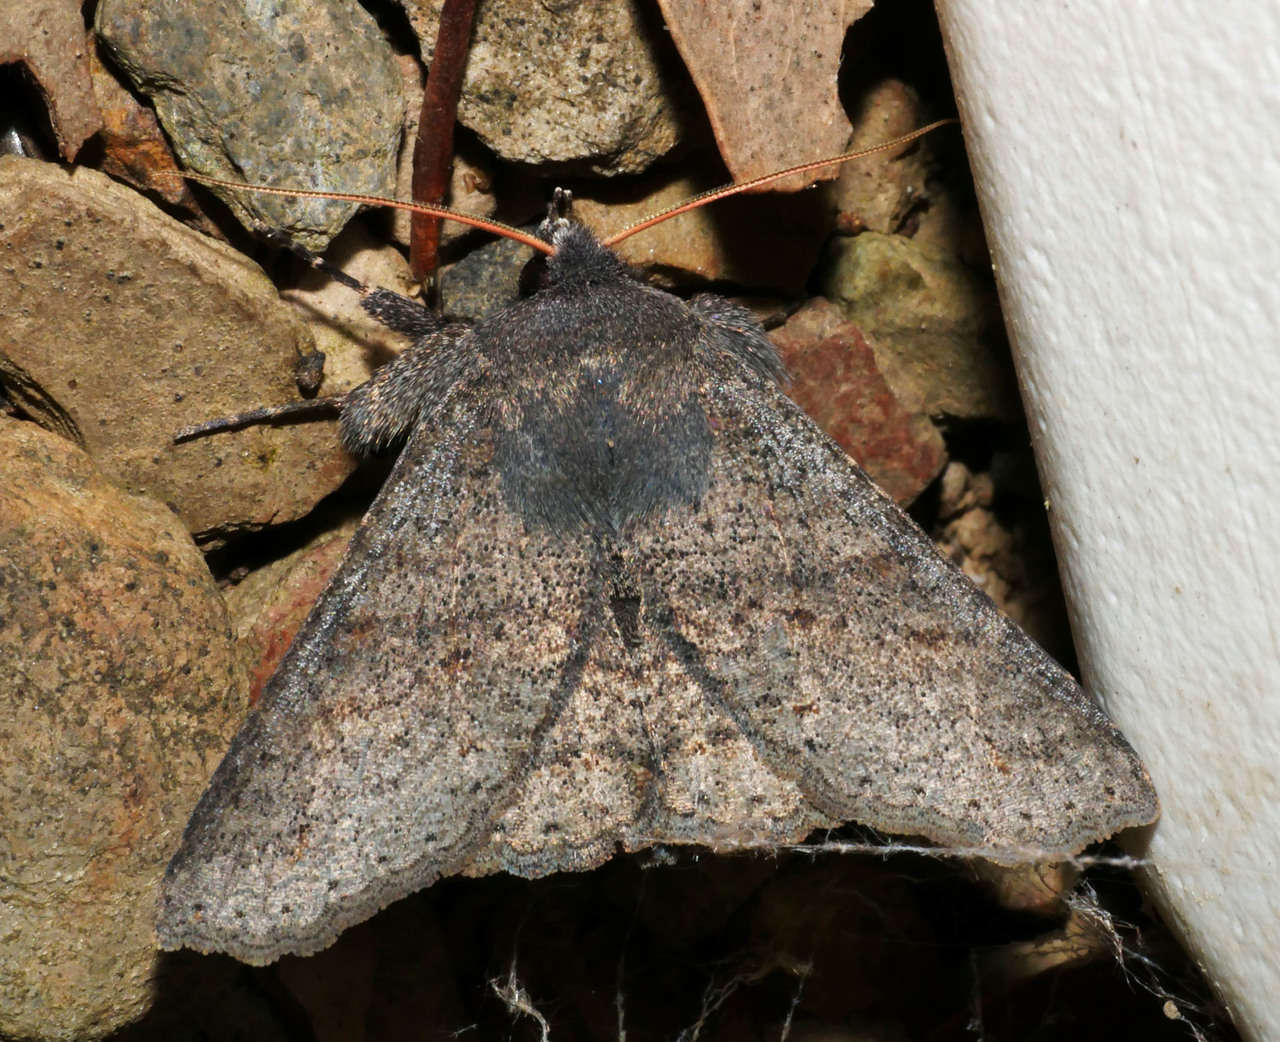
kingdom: Animalia
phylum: Arthropoda
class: Insecta
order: Lepidoptera
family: Erebidae
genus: Praxis
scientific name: Praxis pandesma
